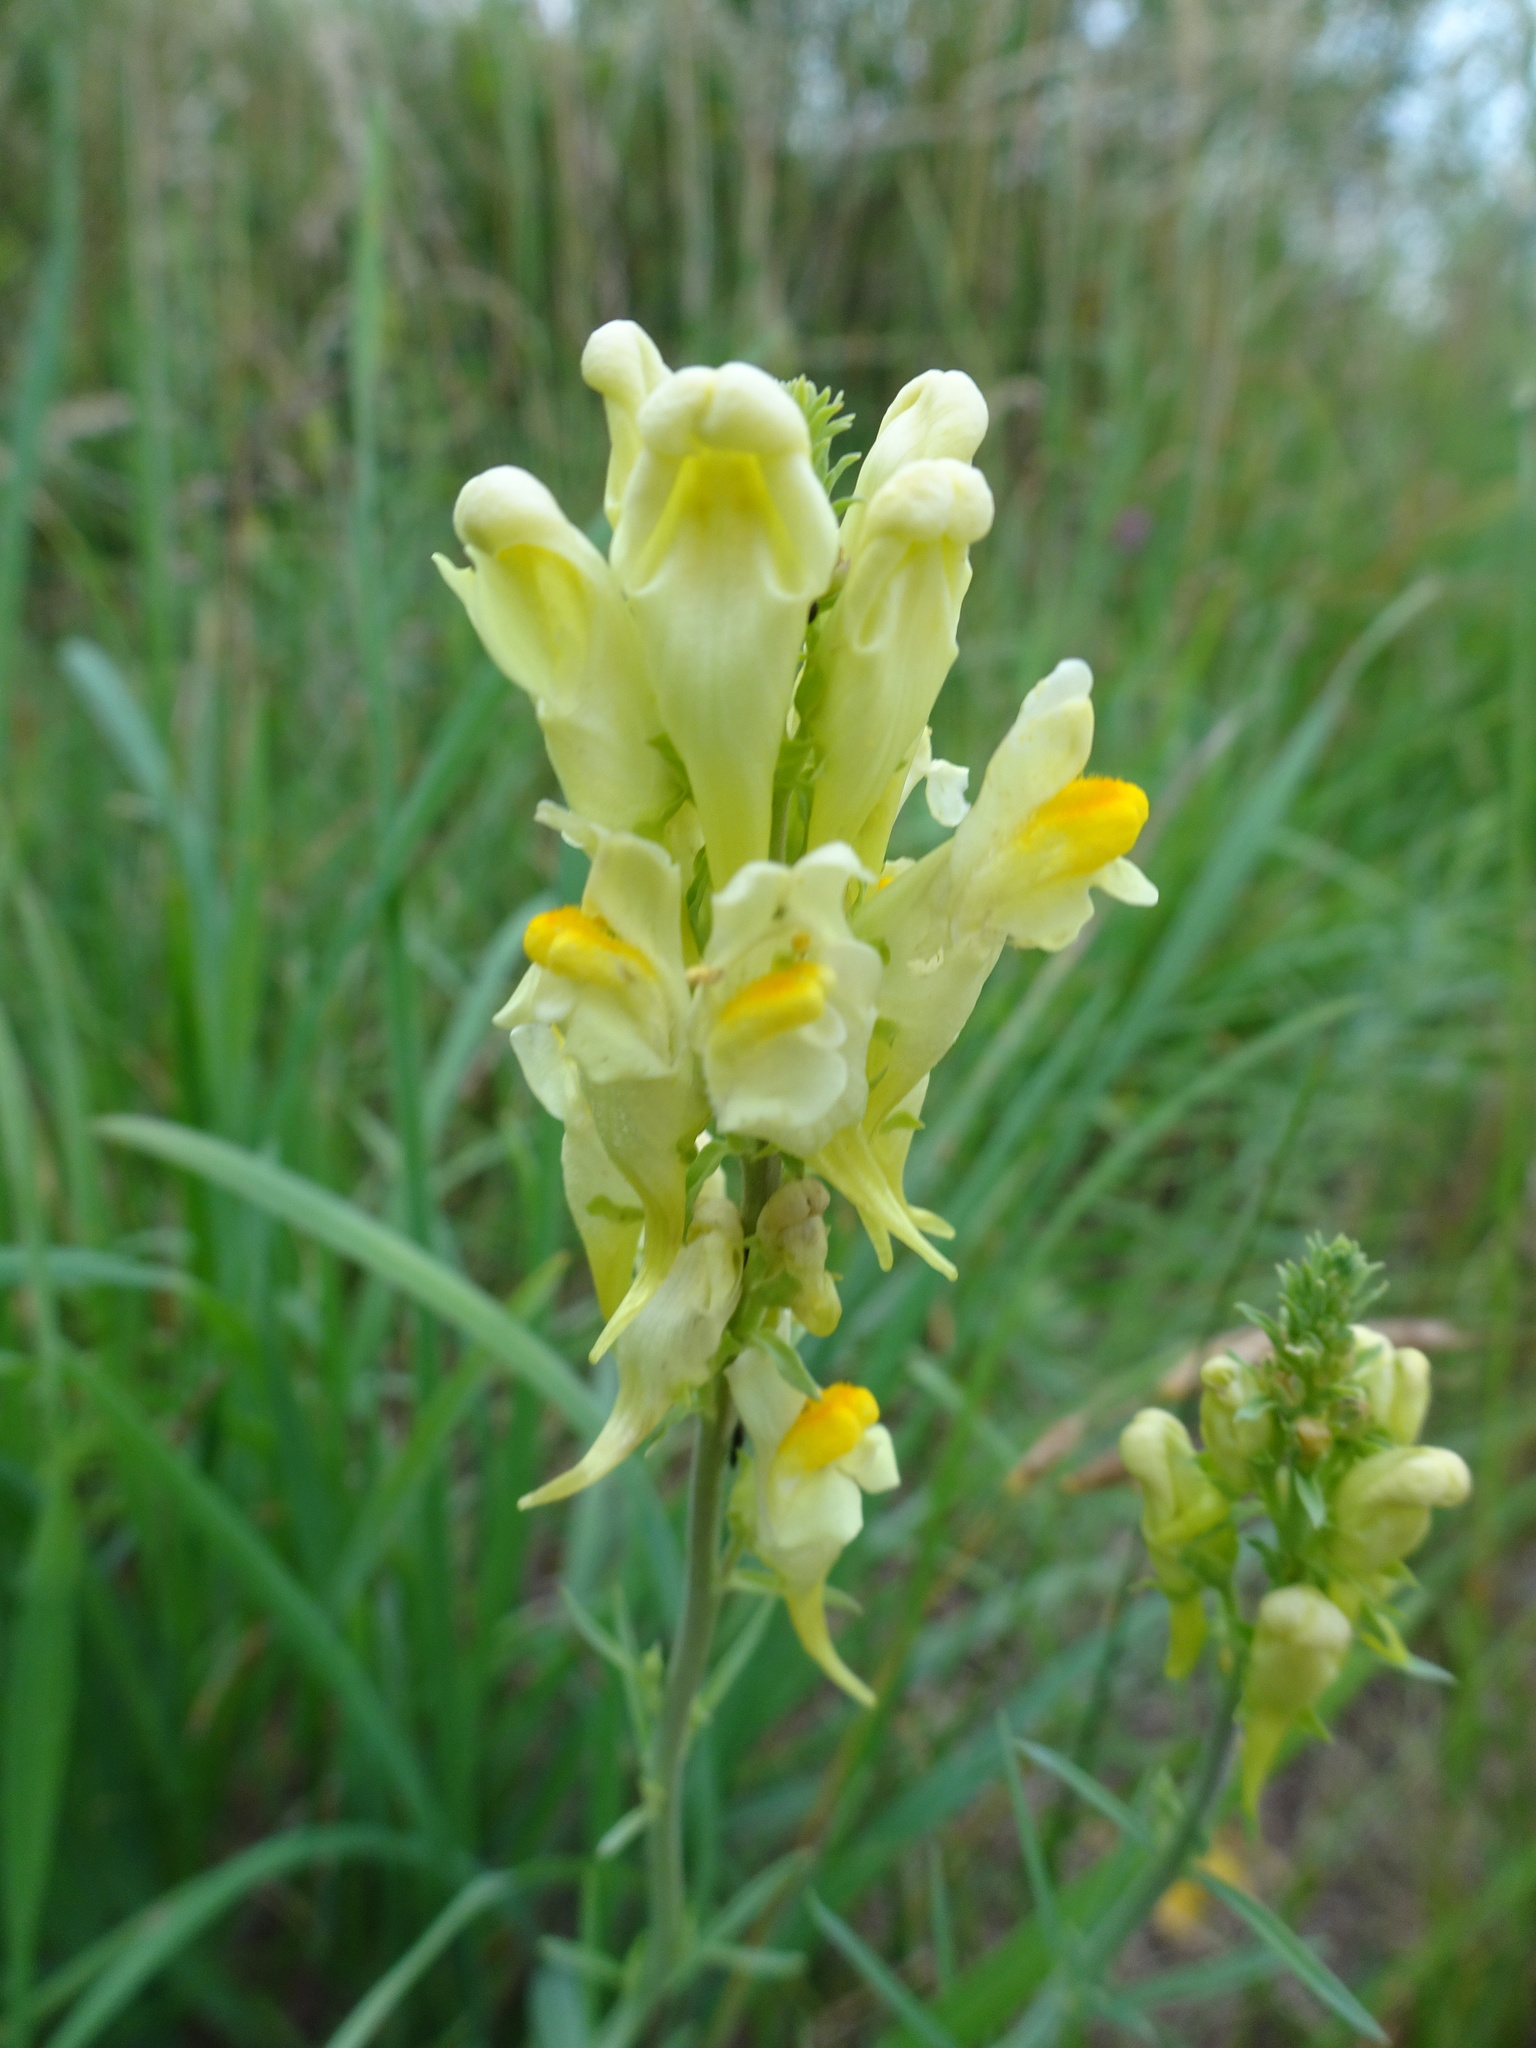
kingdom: Plantae
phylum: Tracheophyta
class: Magnoliopsida
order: Lamiales
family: Plantaginaceae
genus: Linaria
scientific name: Linaria vulgaris
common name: Butter and eggs
